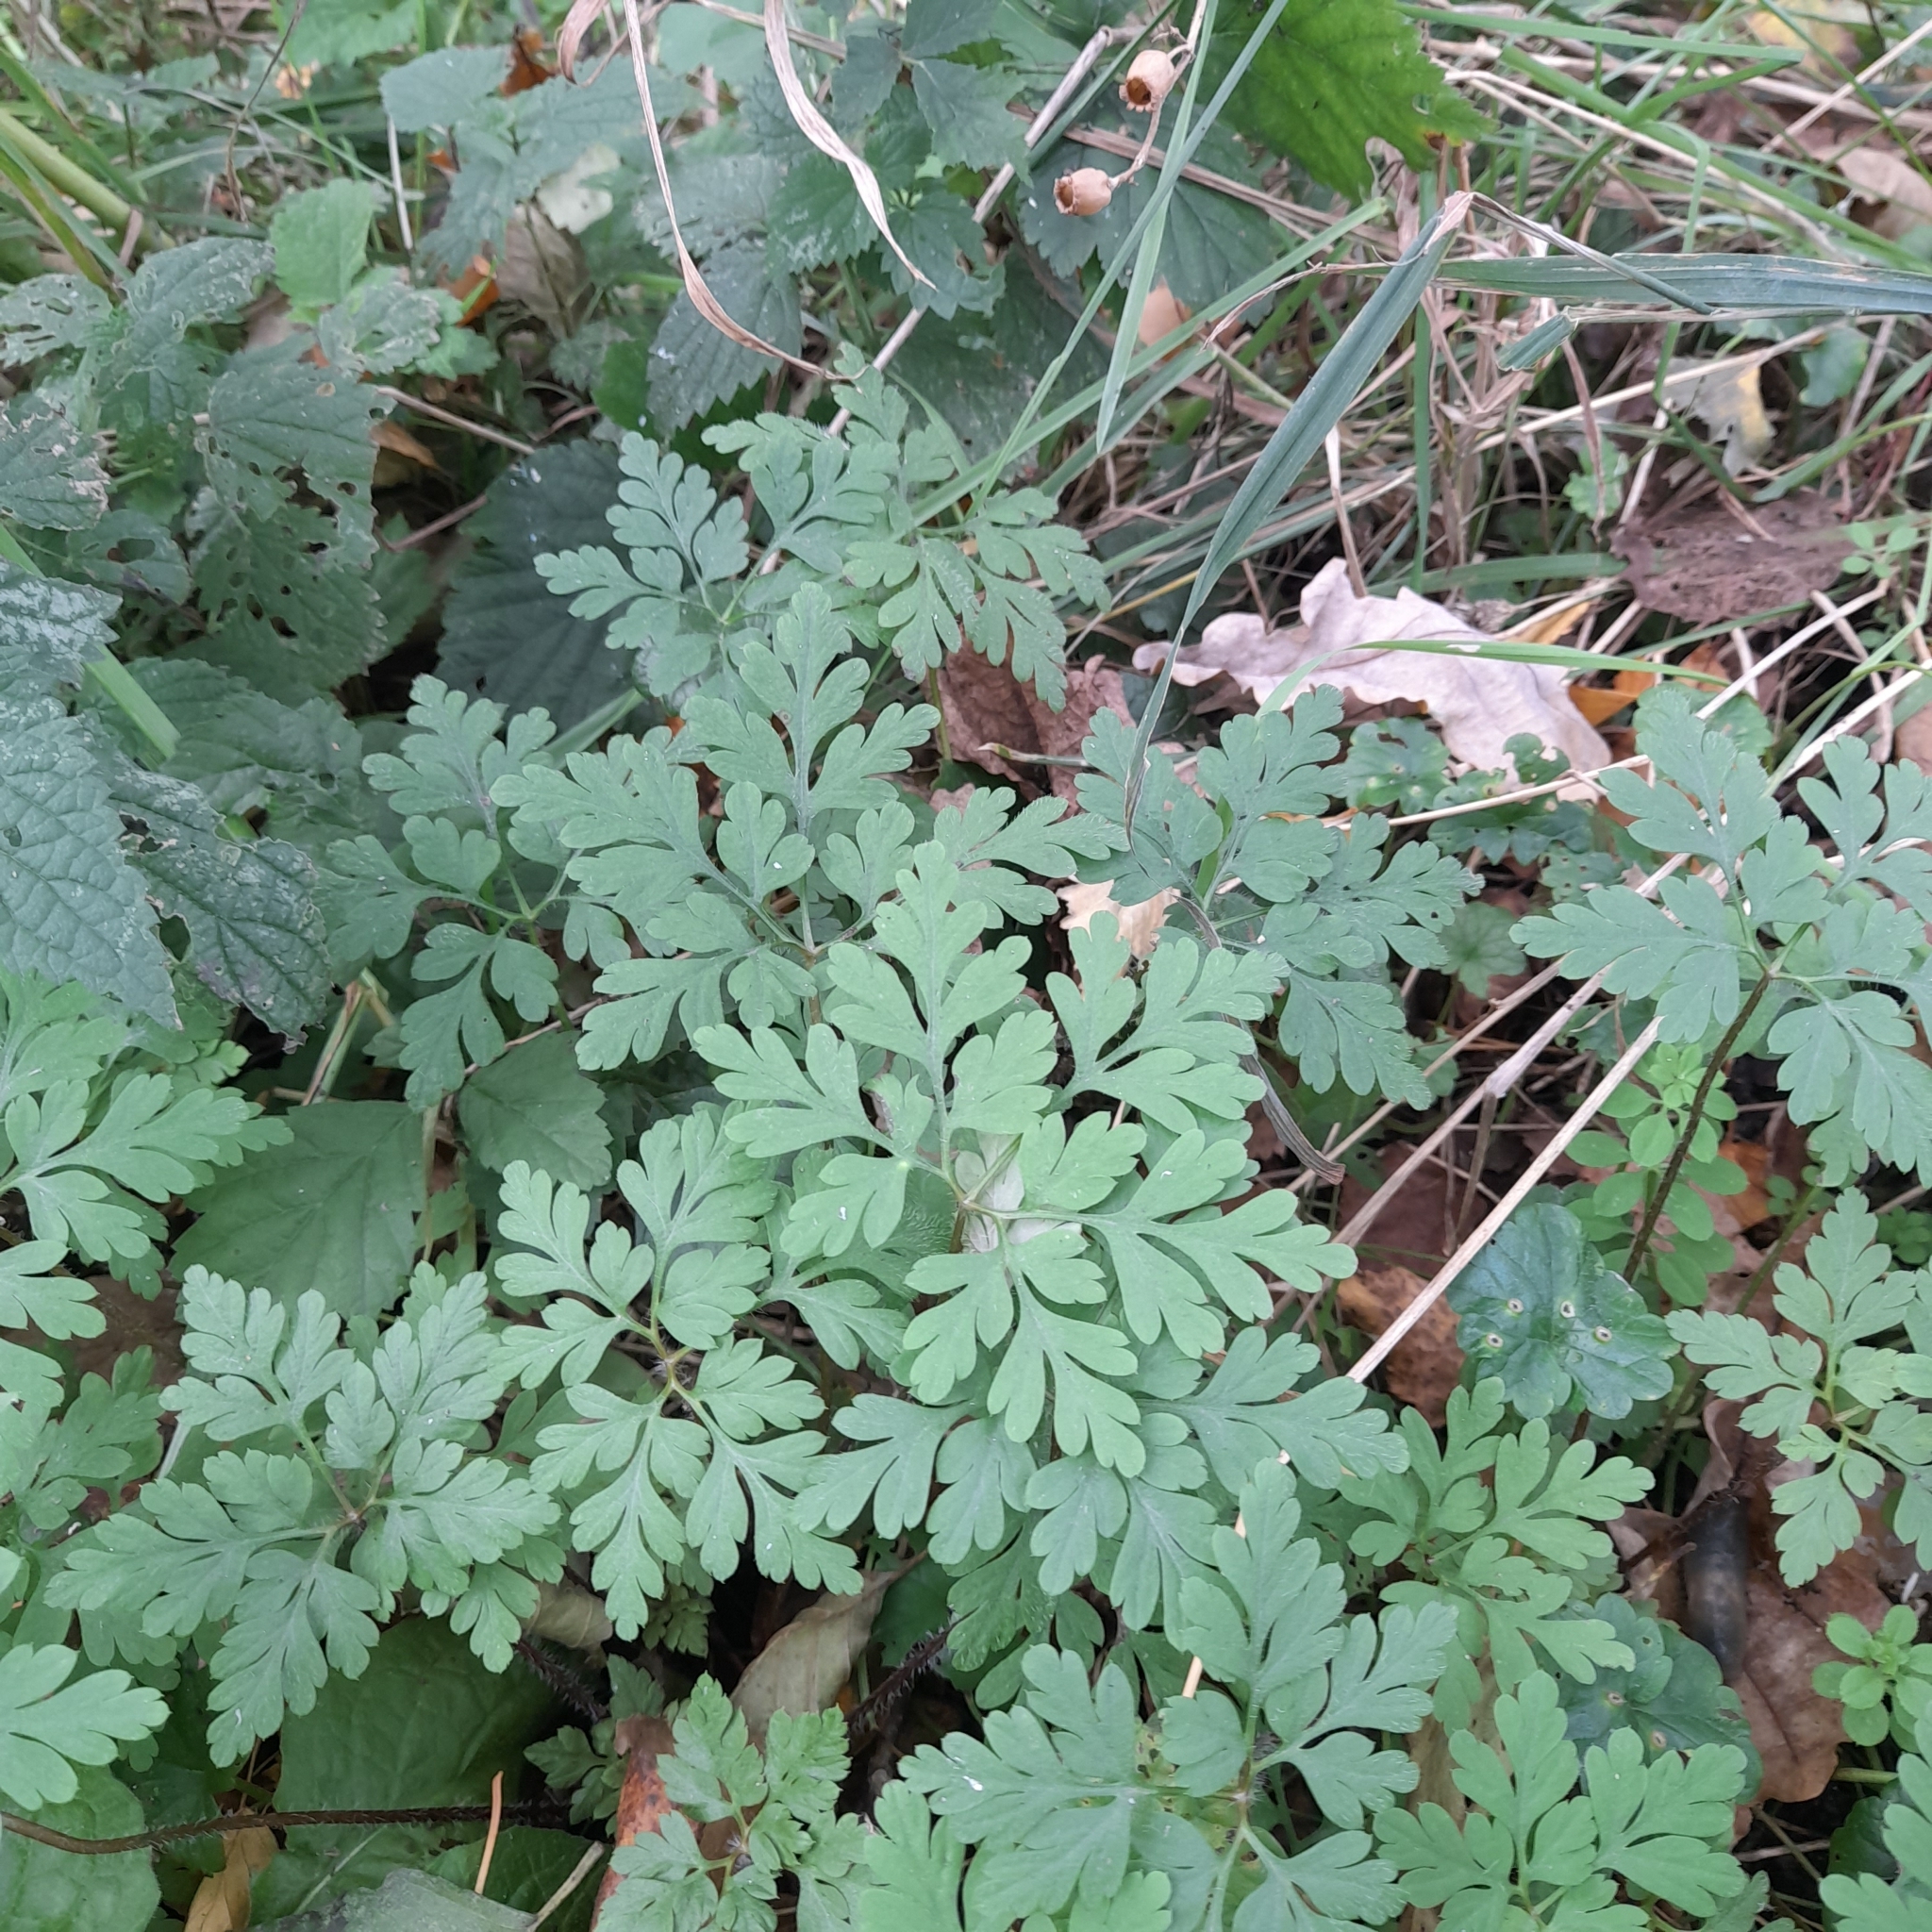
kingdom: Plantae
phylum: Tracheophyta
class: Magnoliopsida
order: Geraniales
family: Geraniaceae
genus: Geranium
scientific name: Geranium robertianum
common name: Herb-robert
